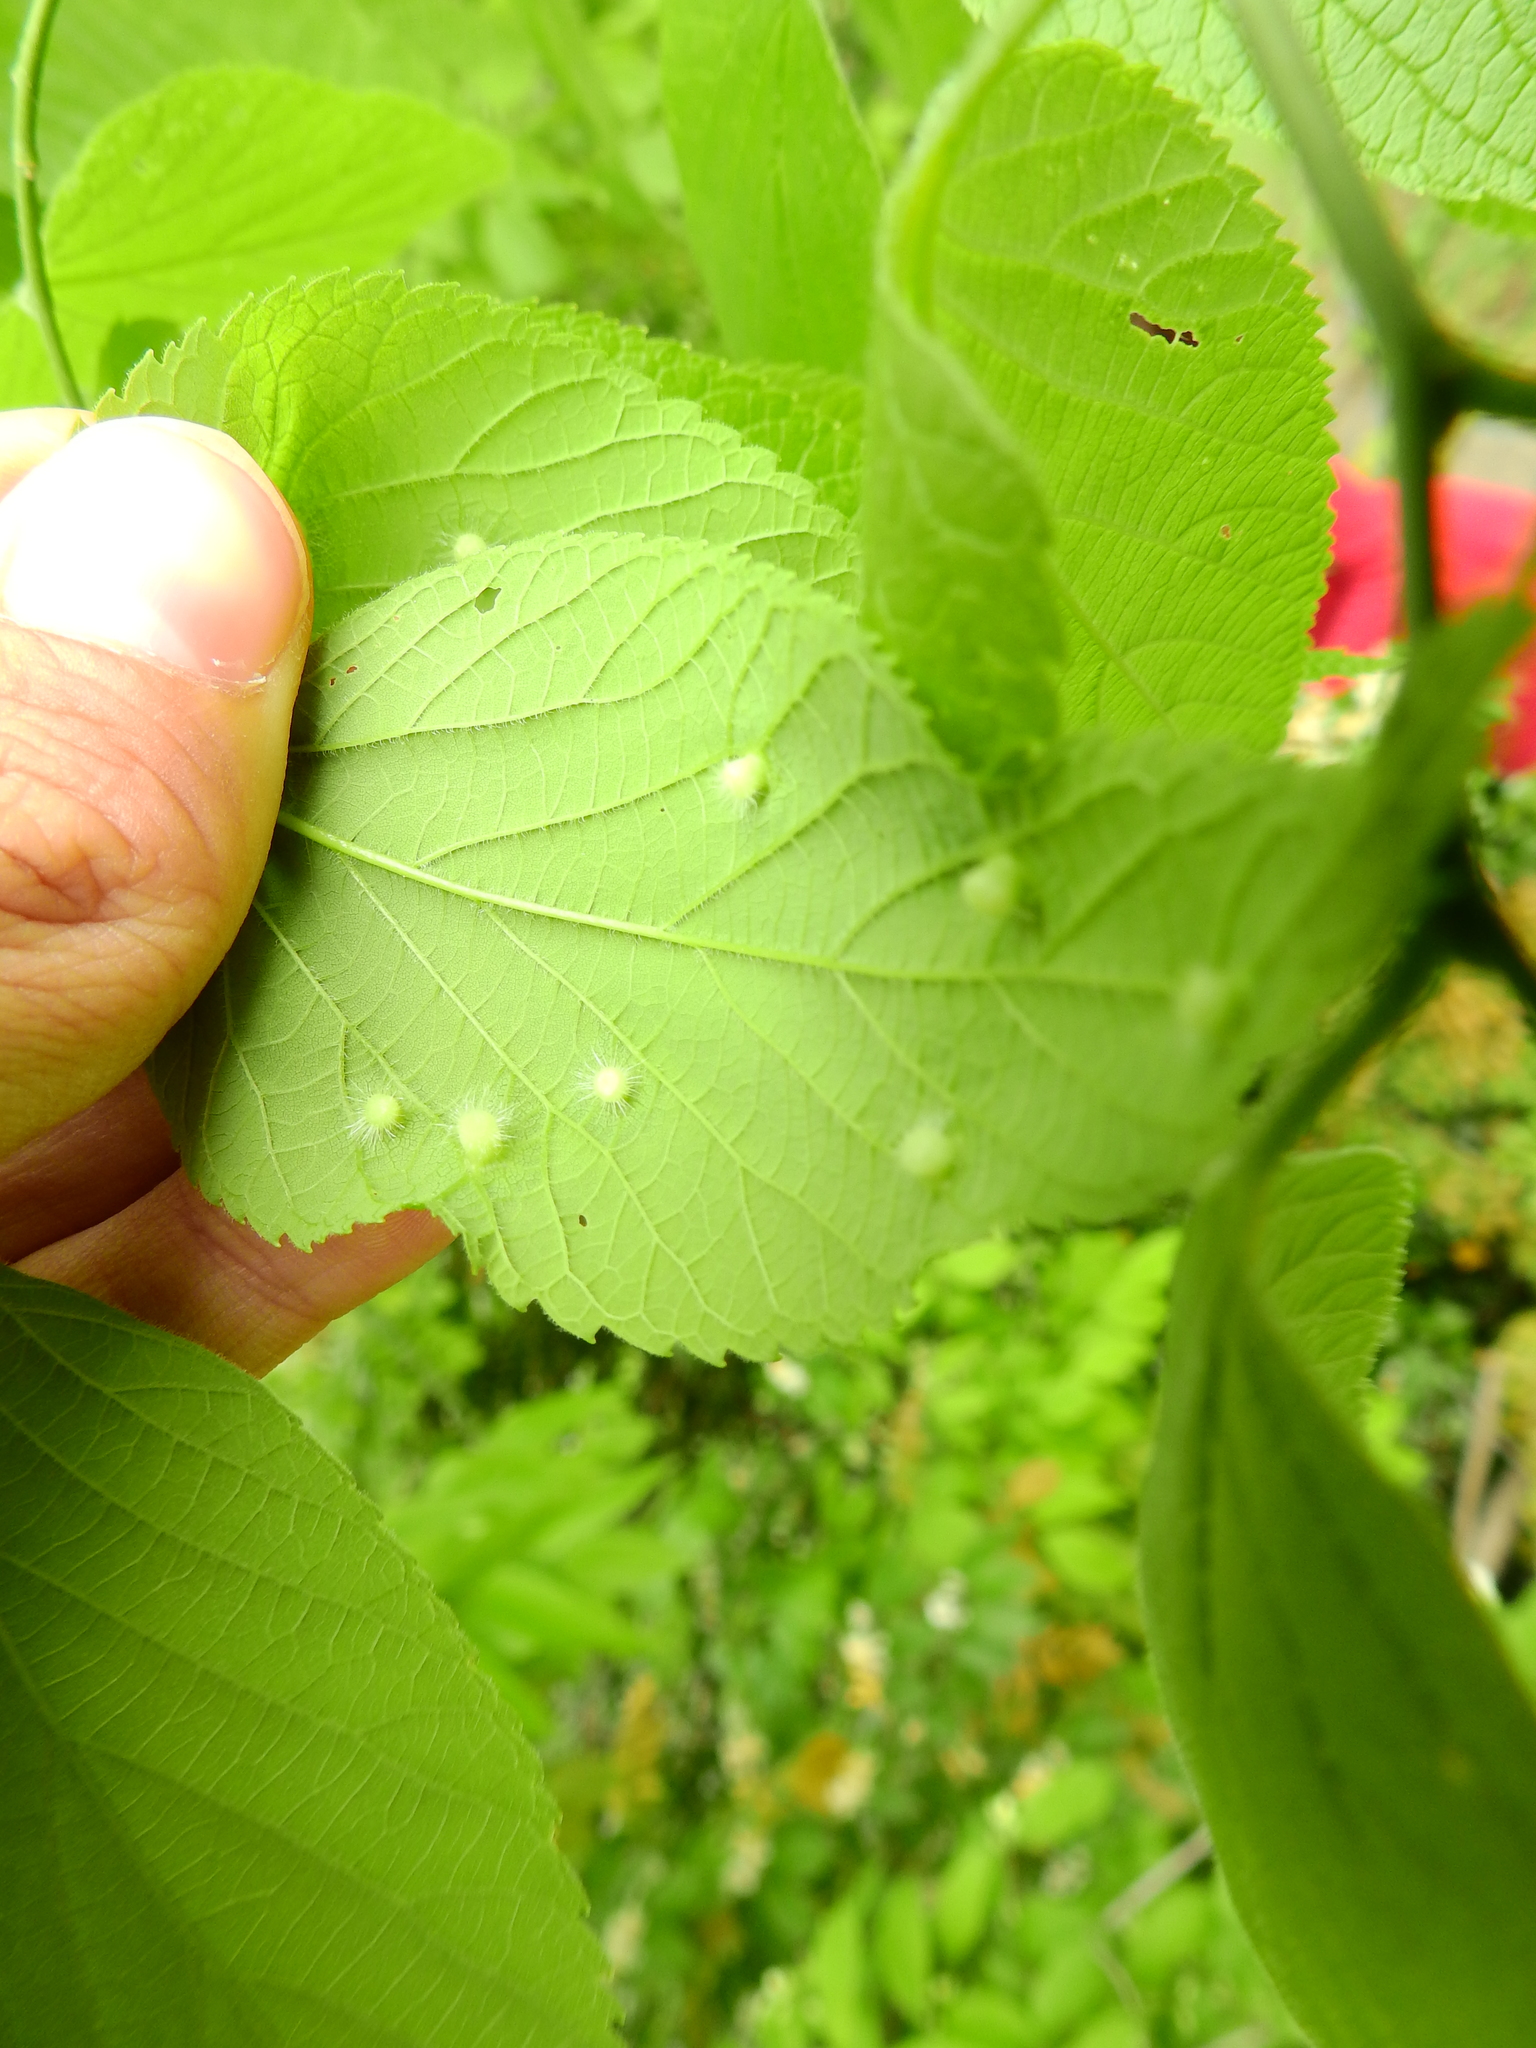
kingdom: Animalia
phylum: Arthropoda
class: Insecta
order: Hemiptera
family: Aphalaridae
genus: Pachypsylla
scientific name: Pachypsylla celtidismamma
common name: Hackberry nipplegall psyllid
